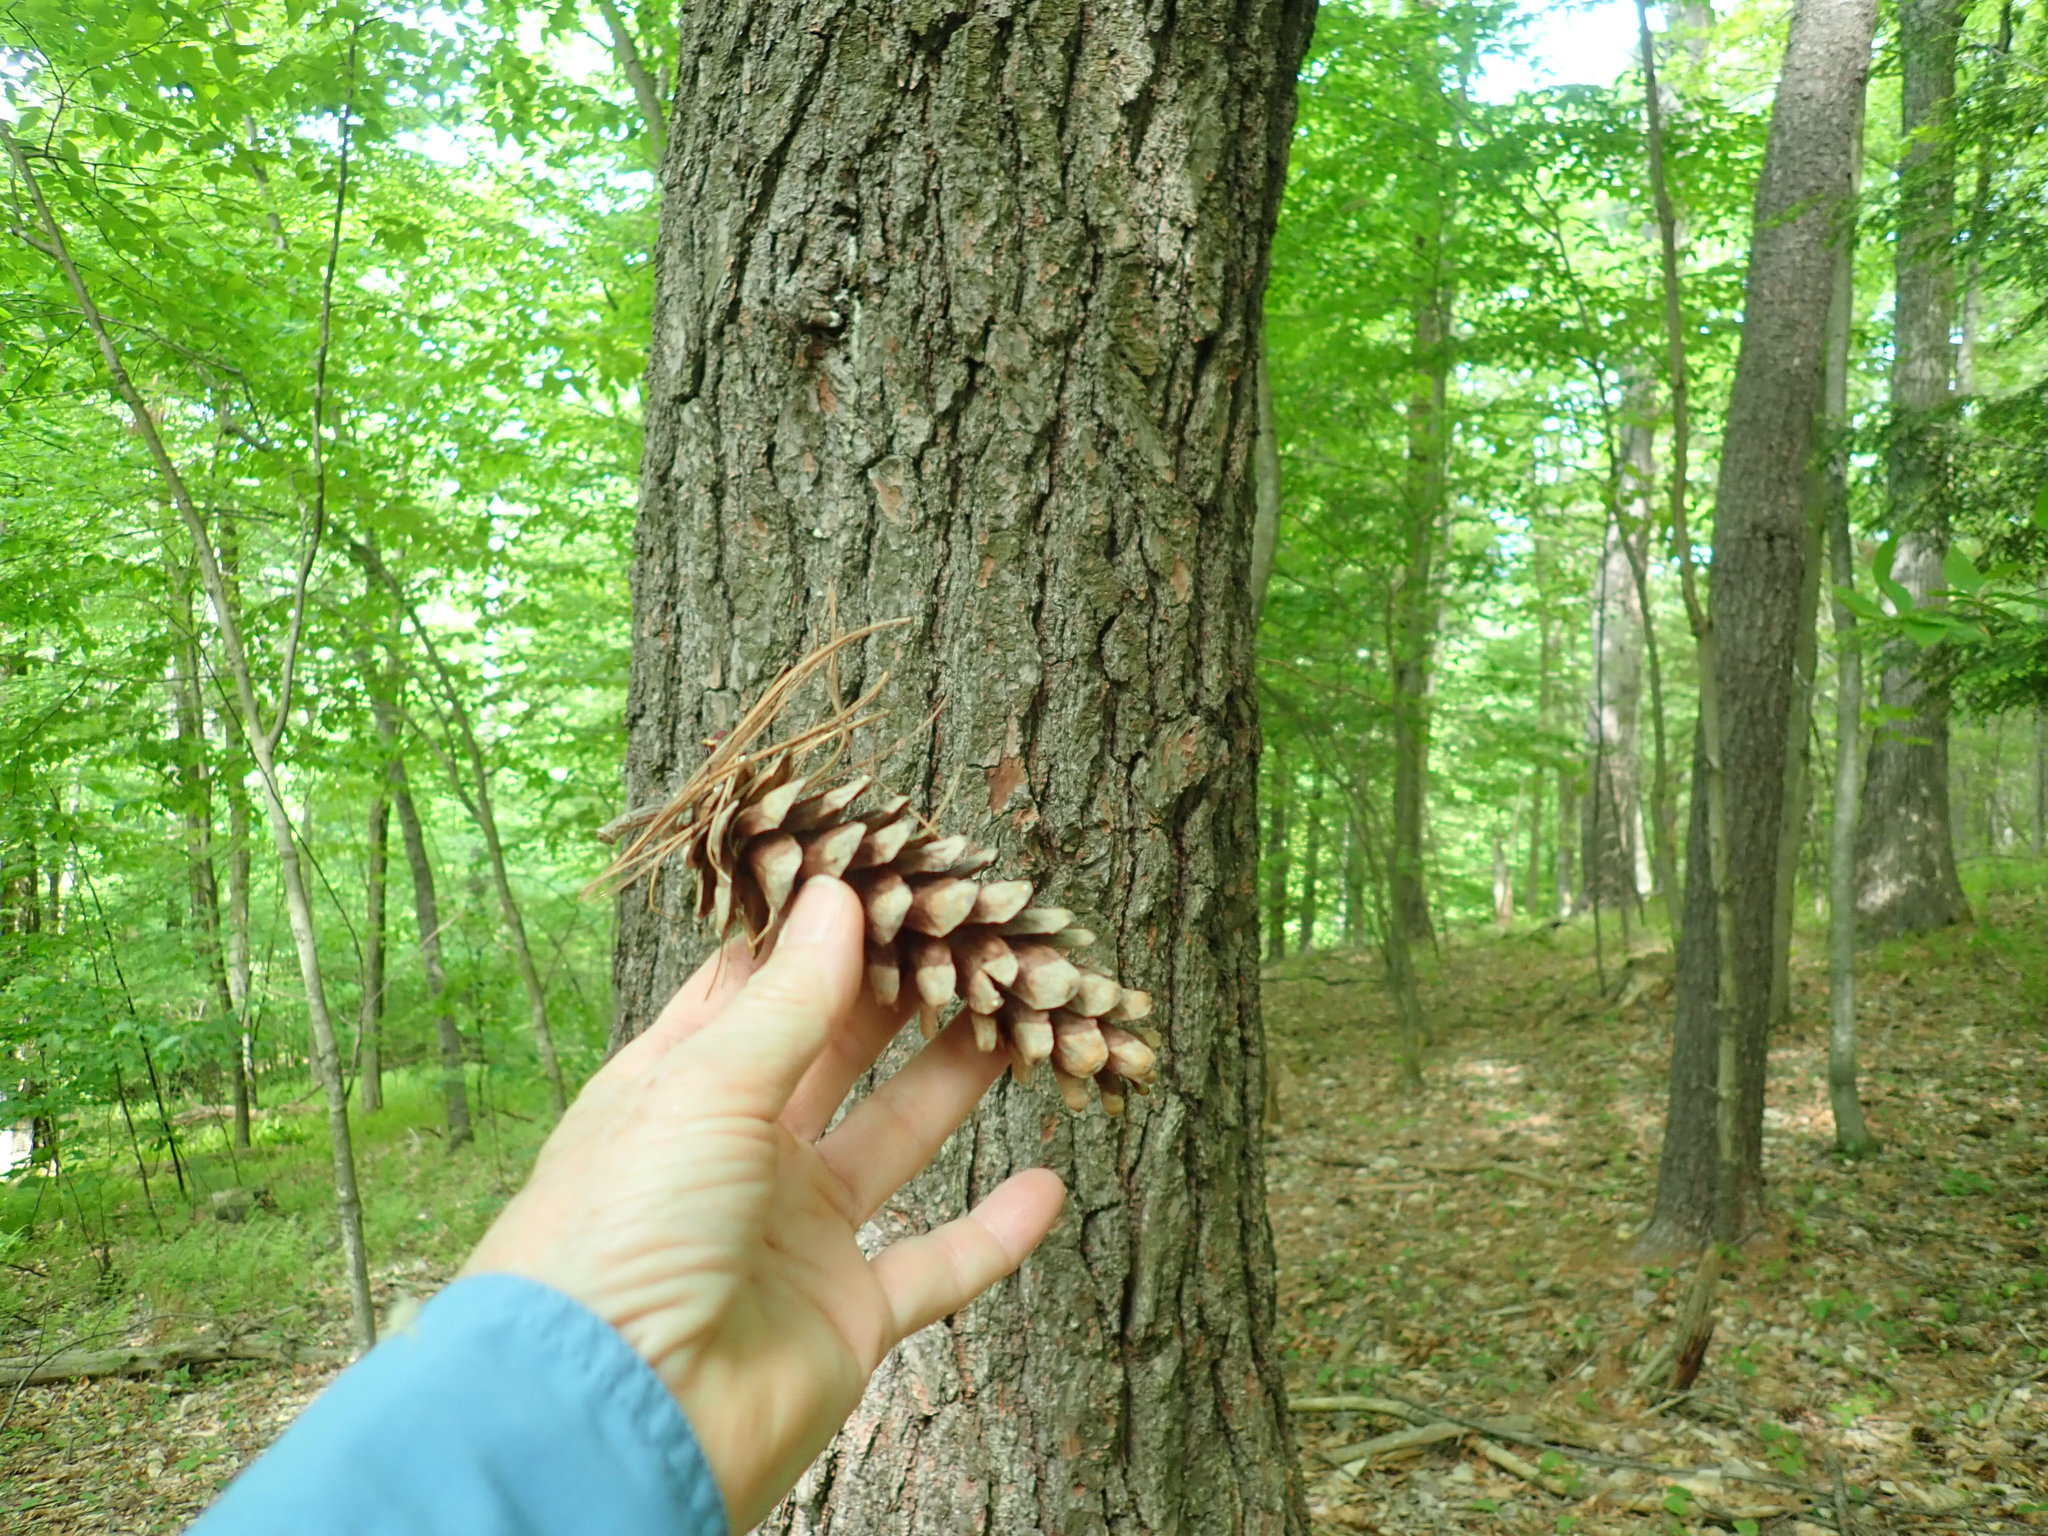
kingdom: Plantae
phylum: Tracheophyta
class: Pinopsida
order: Pinales
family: Pinaceae
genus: Pinus
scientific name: Pinus strobus
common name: Weymouth pine
